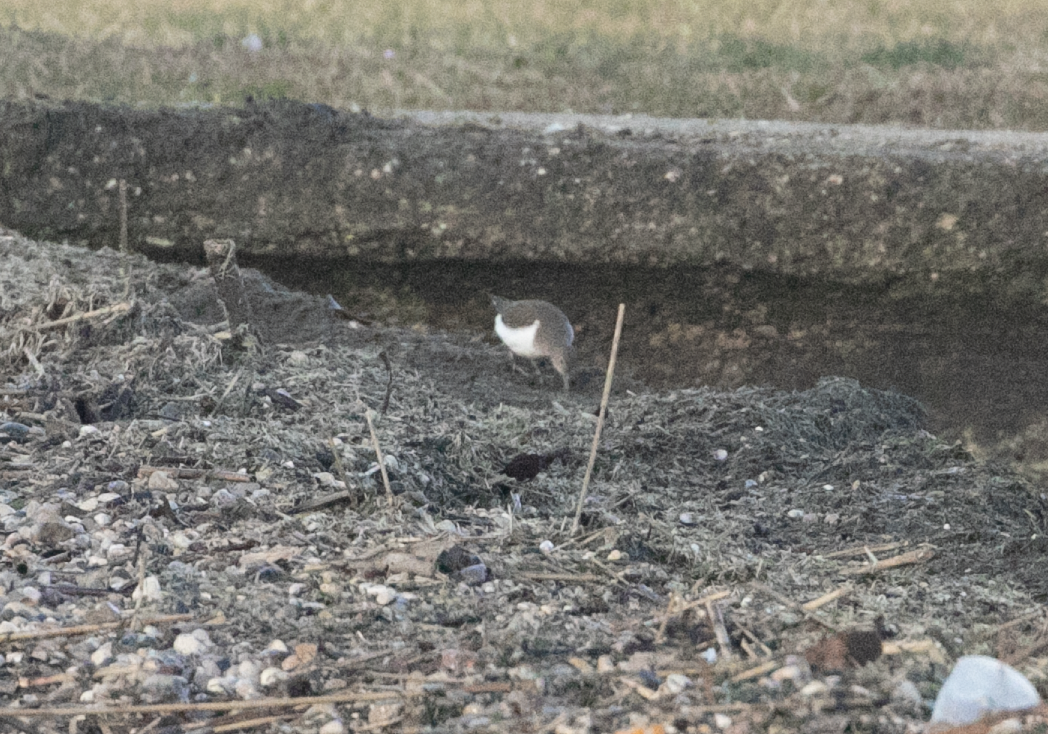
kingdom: Animalia
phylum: Chordata
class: Aves
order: Charadriiformes
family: Scolopacidae
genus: Actitis
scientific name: Actitis hypoleucos
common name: Common sandpiper
